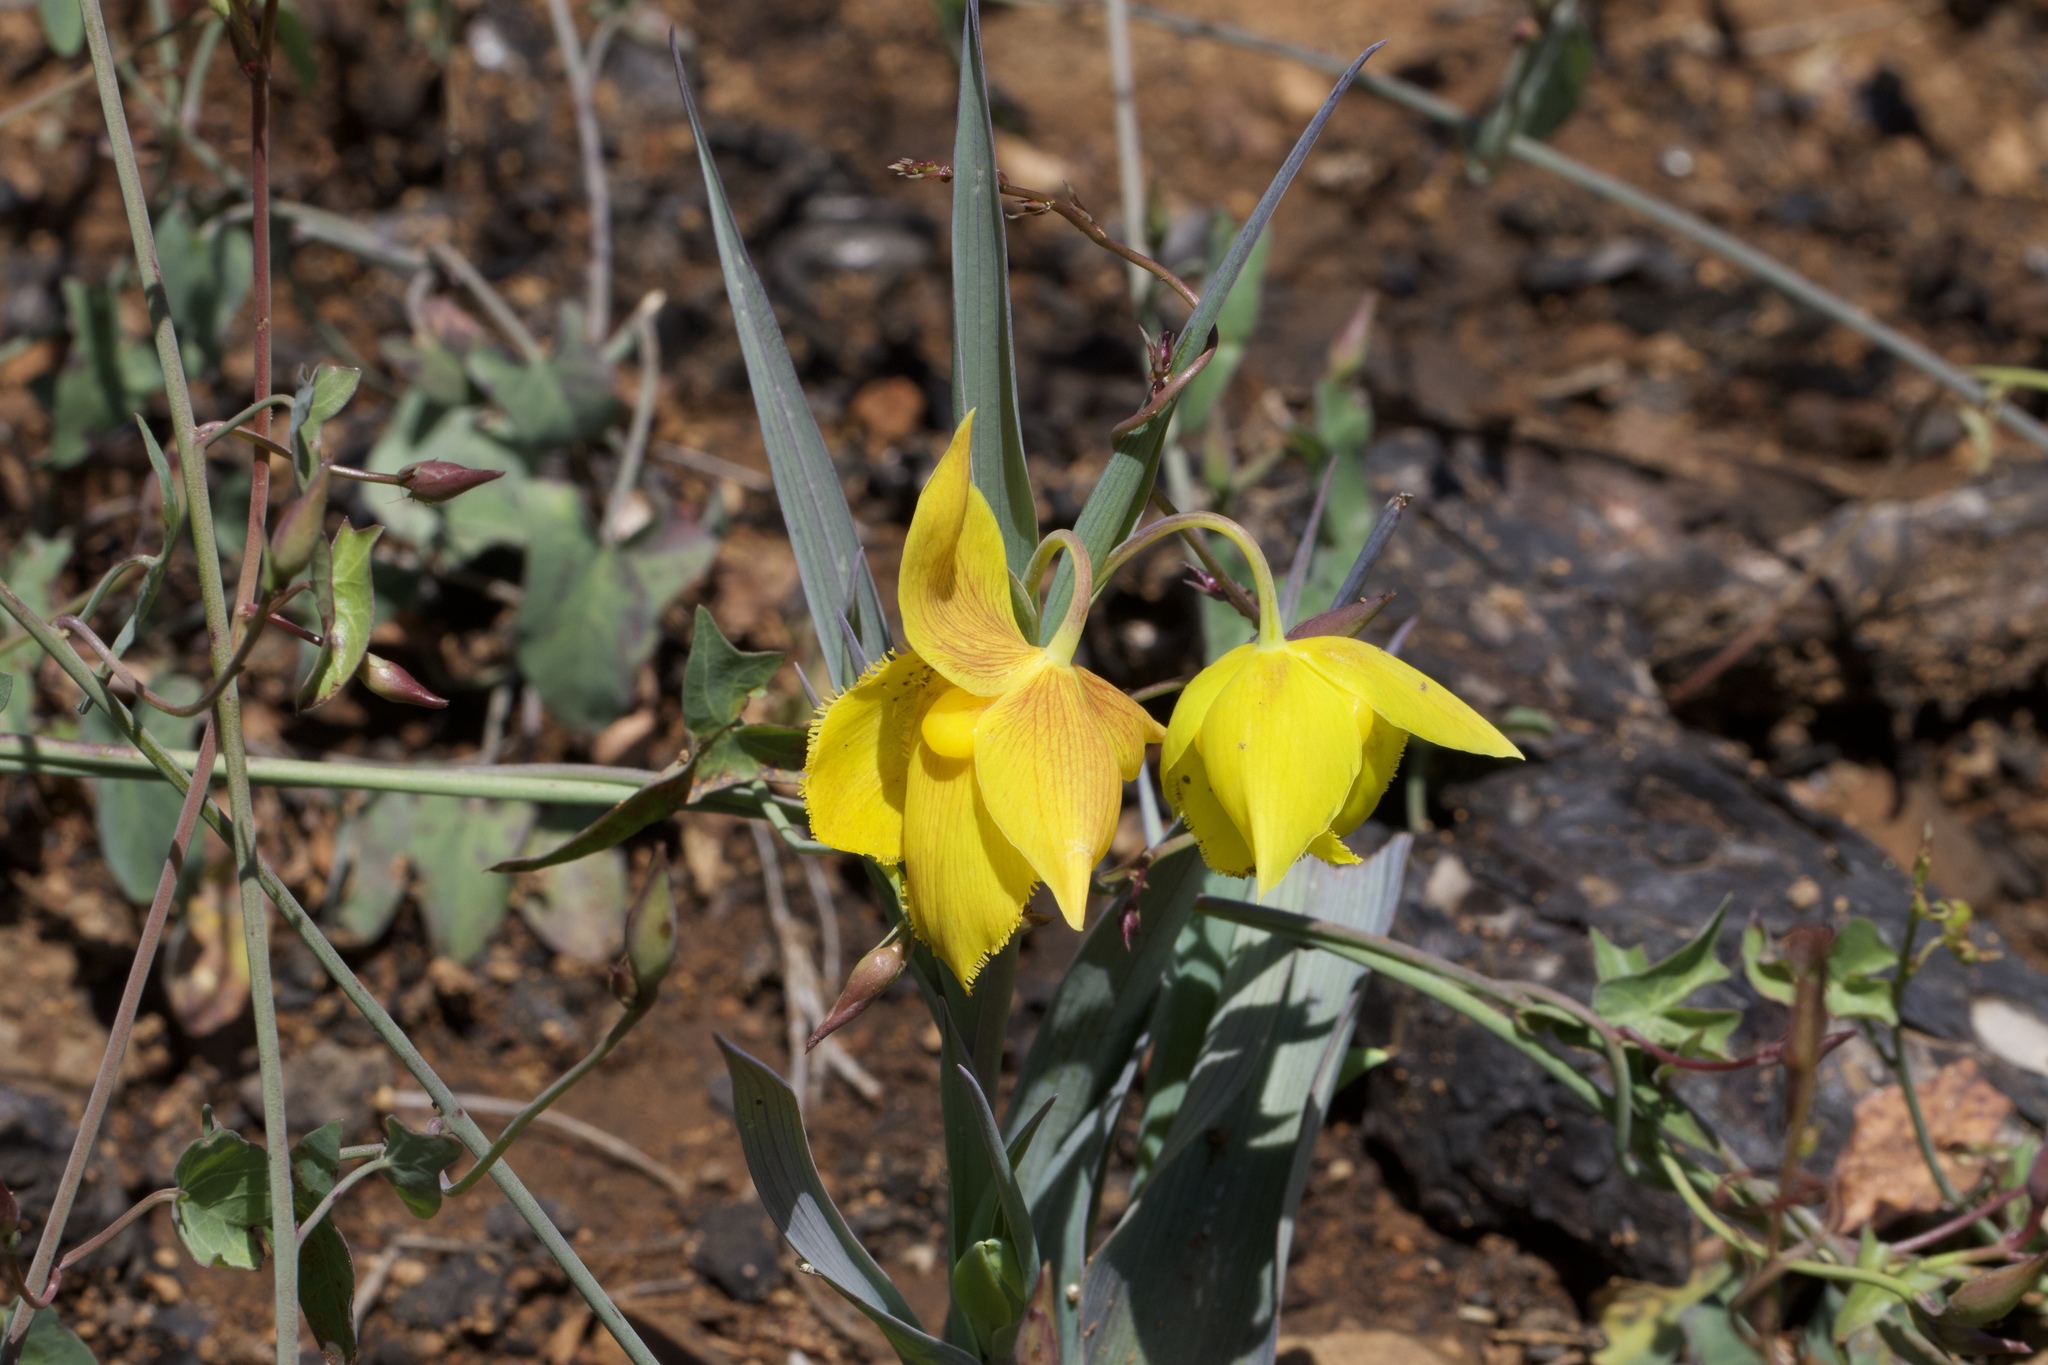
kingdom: Plantae
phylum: Tracheophyta
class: Liliopsida
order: Liliales
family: Liliaceae
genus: Calochortus
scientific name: Calochortus amabilis
